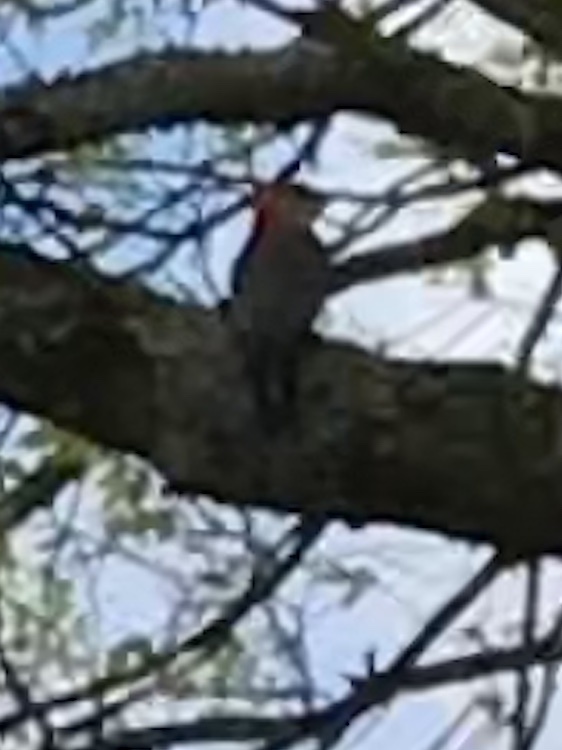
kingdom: Animalia
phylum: Chordata
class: Aves
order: Piciformes
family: Picidae
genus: Melanerpes
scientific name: Melanerpes carolinus
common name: Red-bellied woodpecker
